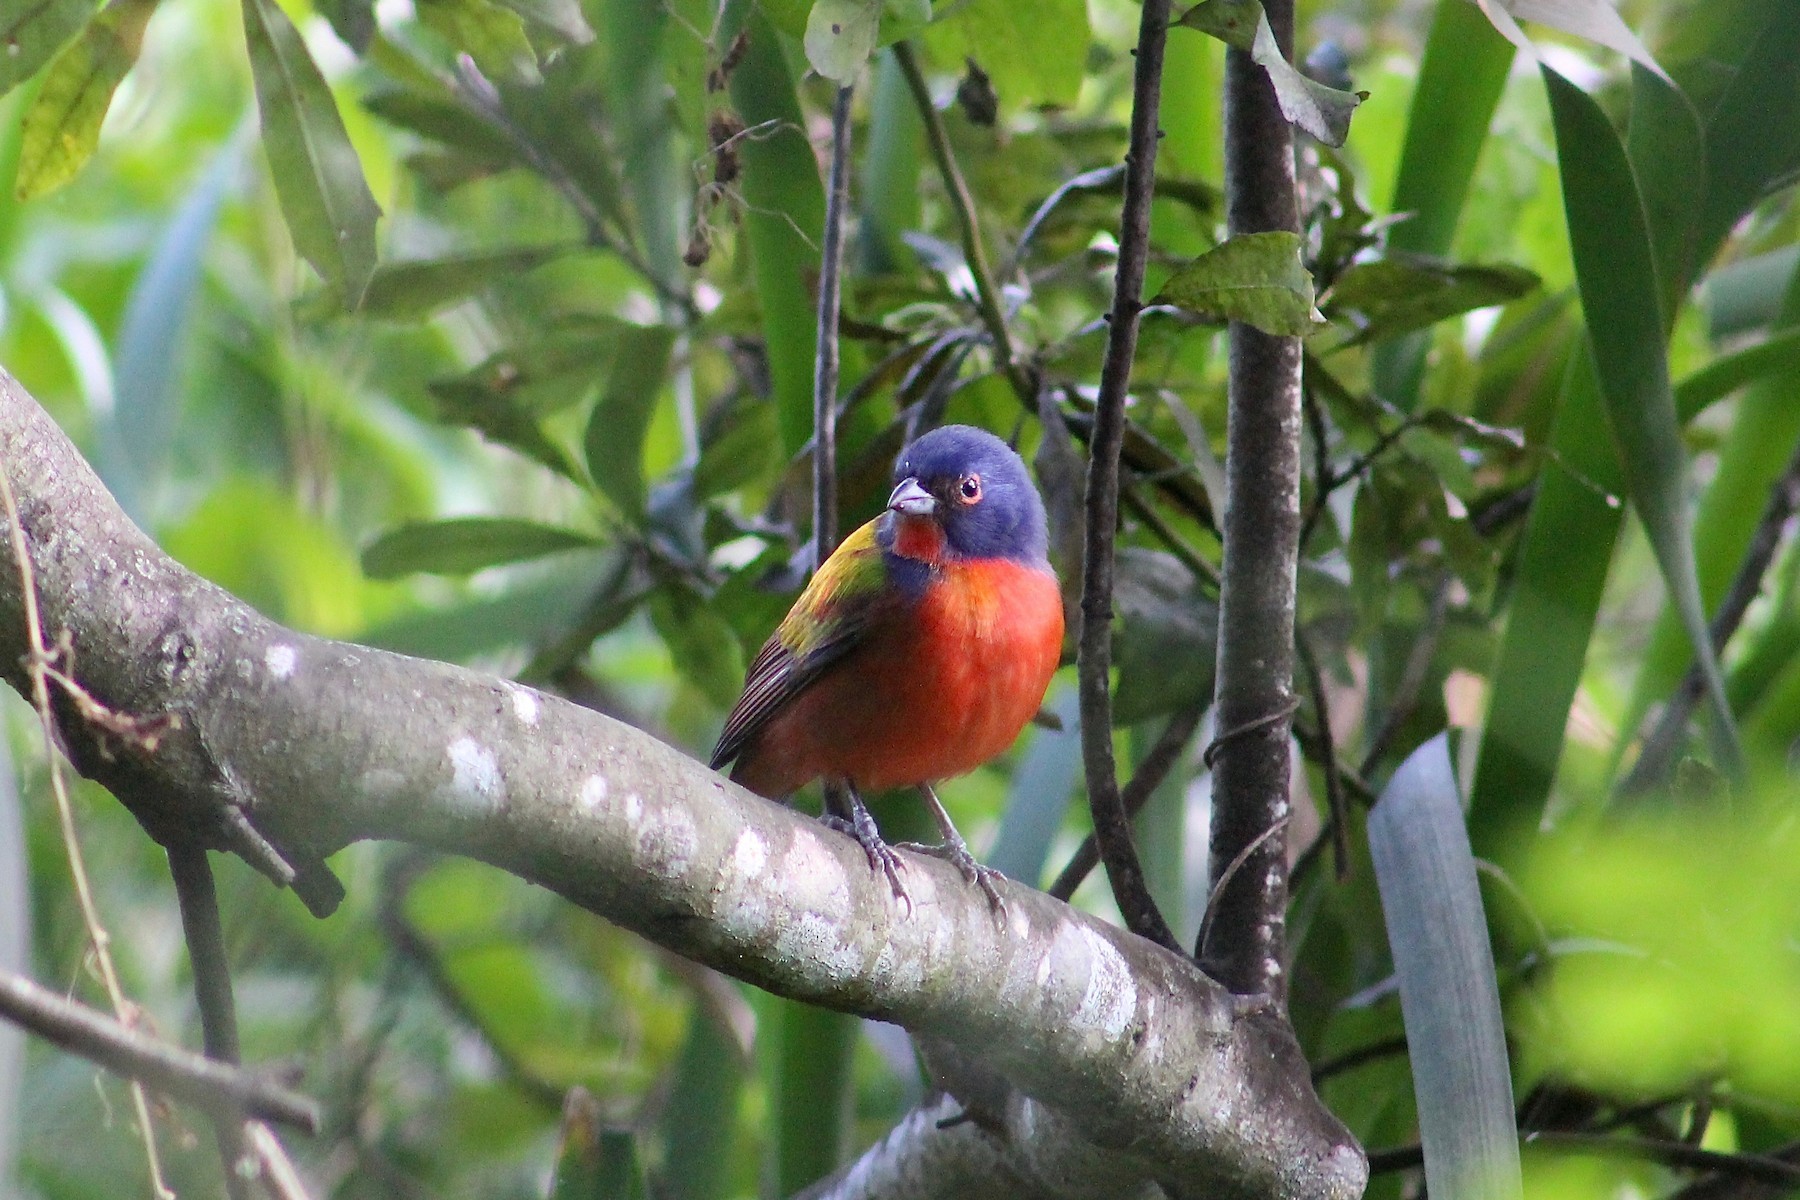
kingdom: Animalia
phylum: Chordata
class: Aves
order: Passeriformes
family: Cardinalidae
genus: Passerina
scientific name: Passerina ciris
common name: Painted bunting
